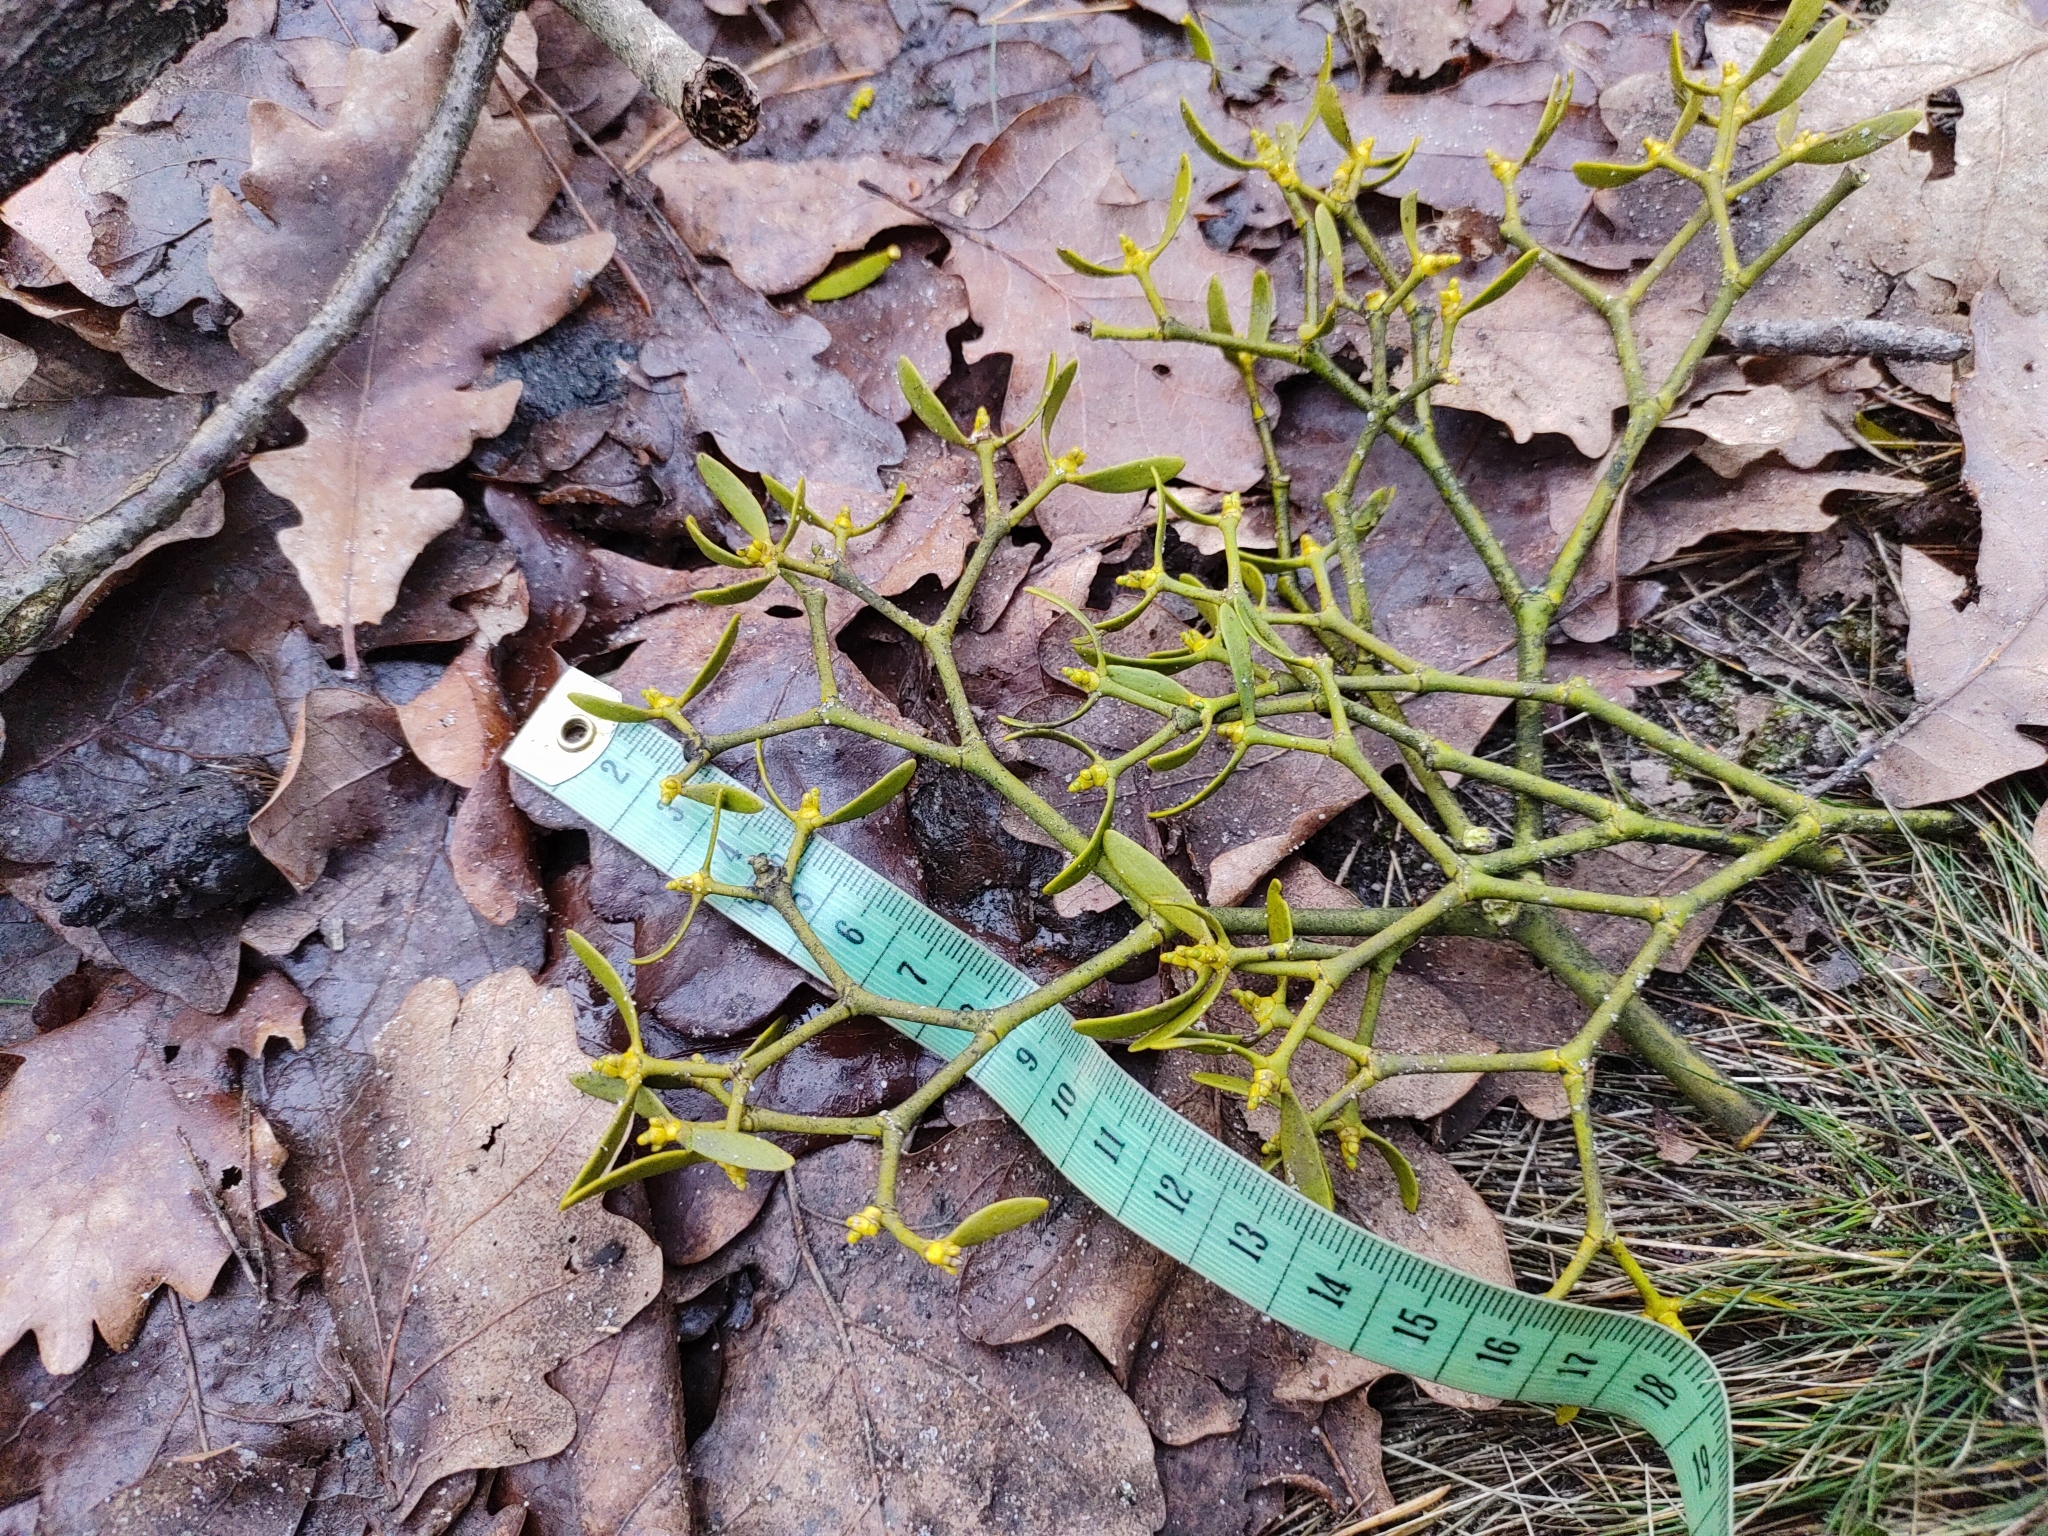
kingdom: Plantae
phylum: Tracheophyta
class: Magnoliopsida
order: Santalales
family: Viscaceae
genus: Viscum
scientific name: Viscum laxum
